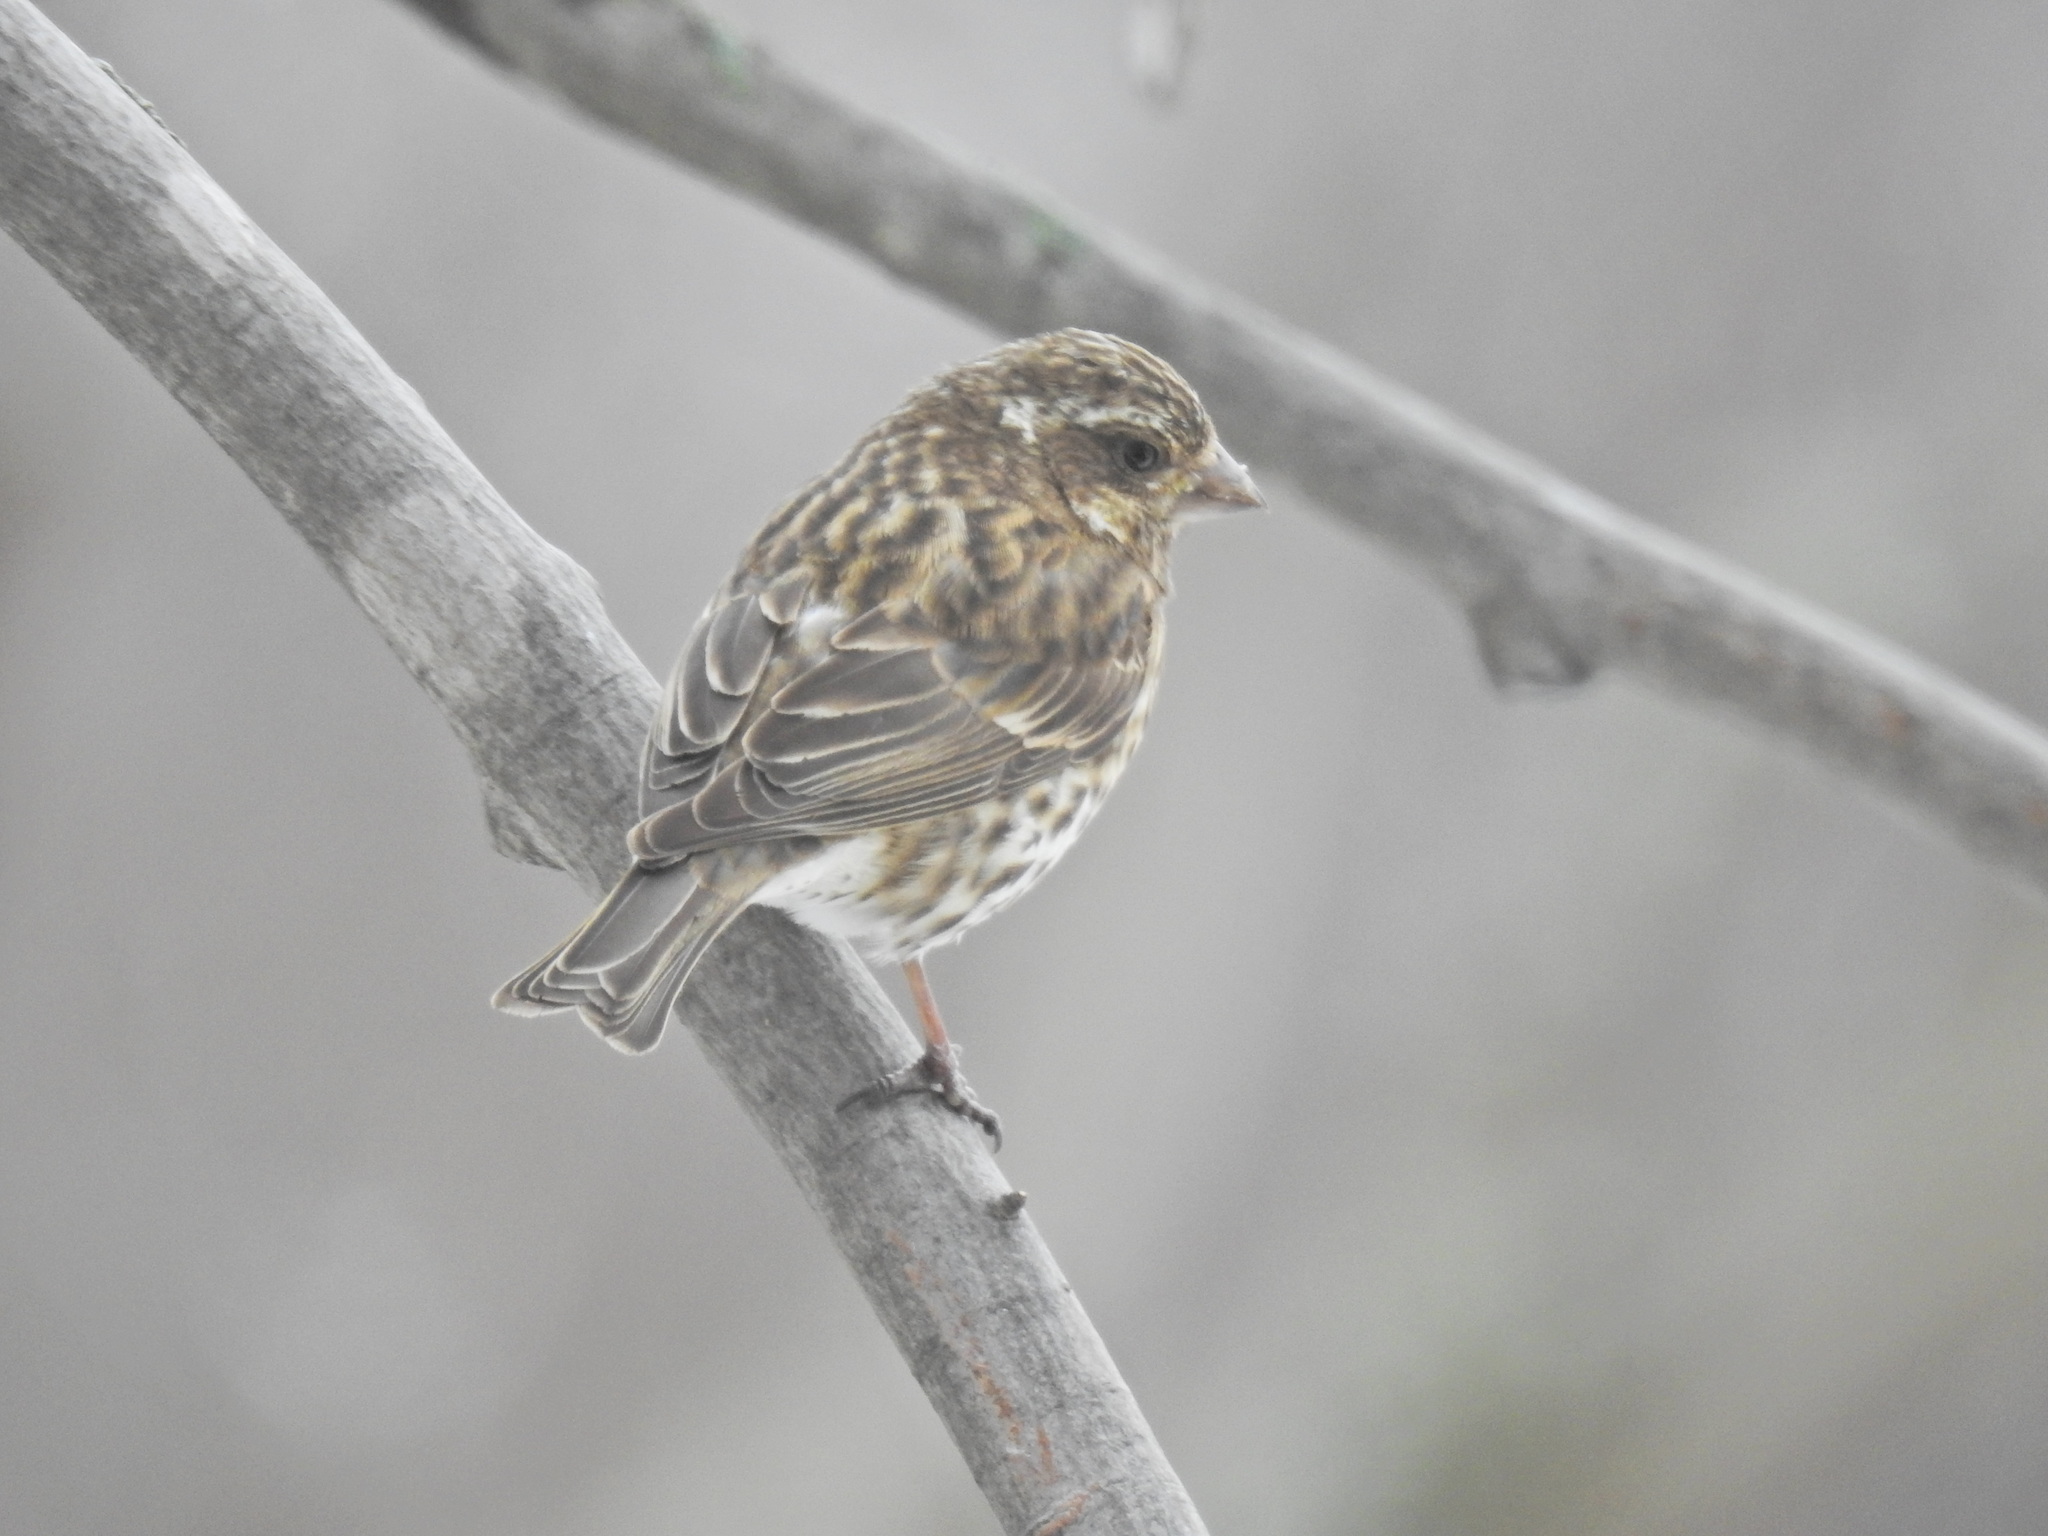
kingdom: Animalia
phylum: Chordata
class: Aves
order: Passeriformes
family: Fringillidae
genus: Haemorhous
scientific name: Haemorhous purpureus
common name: Purple finch
